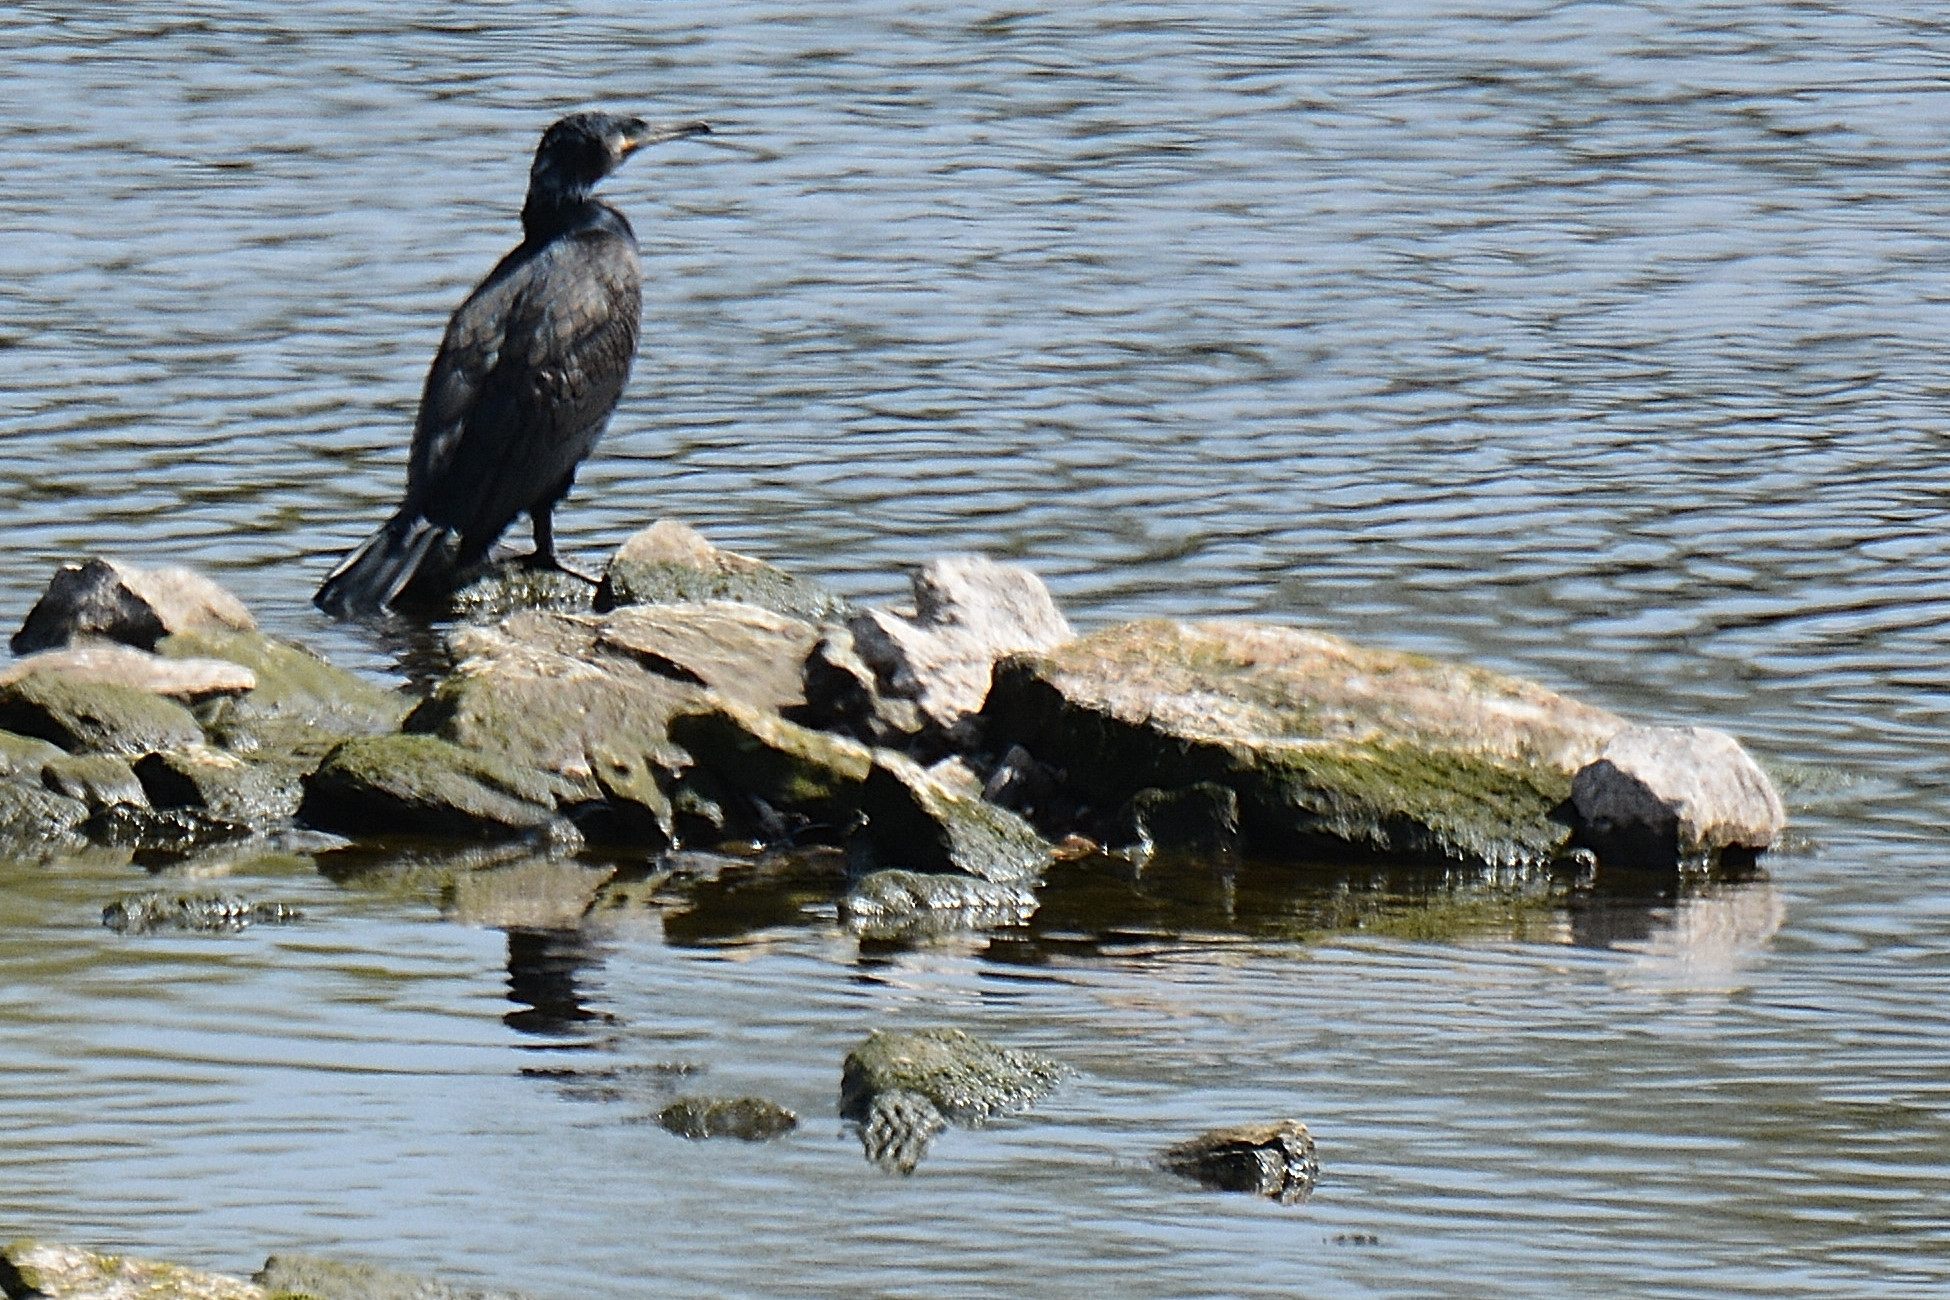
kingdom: Animalia
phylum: Chordata
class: Aves
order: Suliformes
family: Phalacrocoracidae
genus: Phalacrocorax
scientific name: Phalacrocorax carbo
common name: Great cormorant
